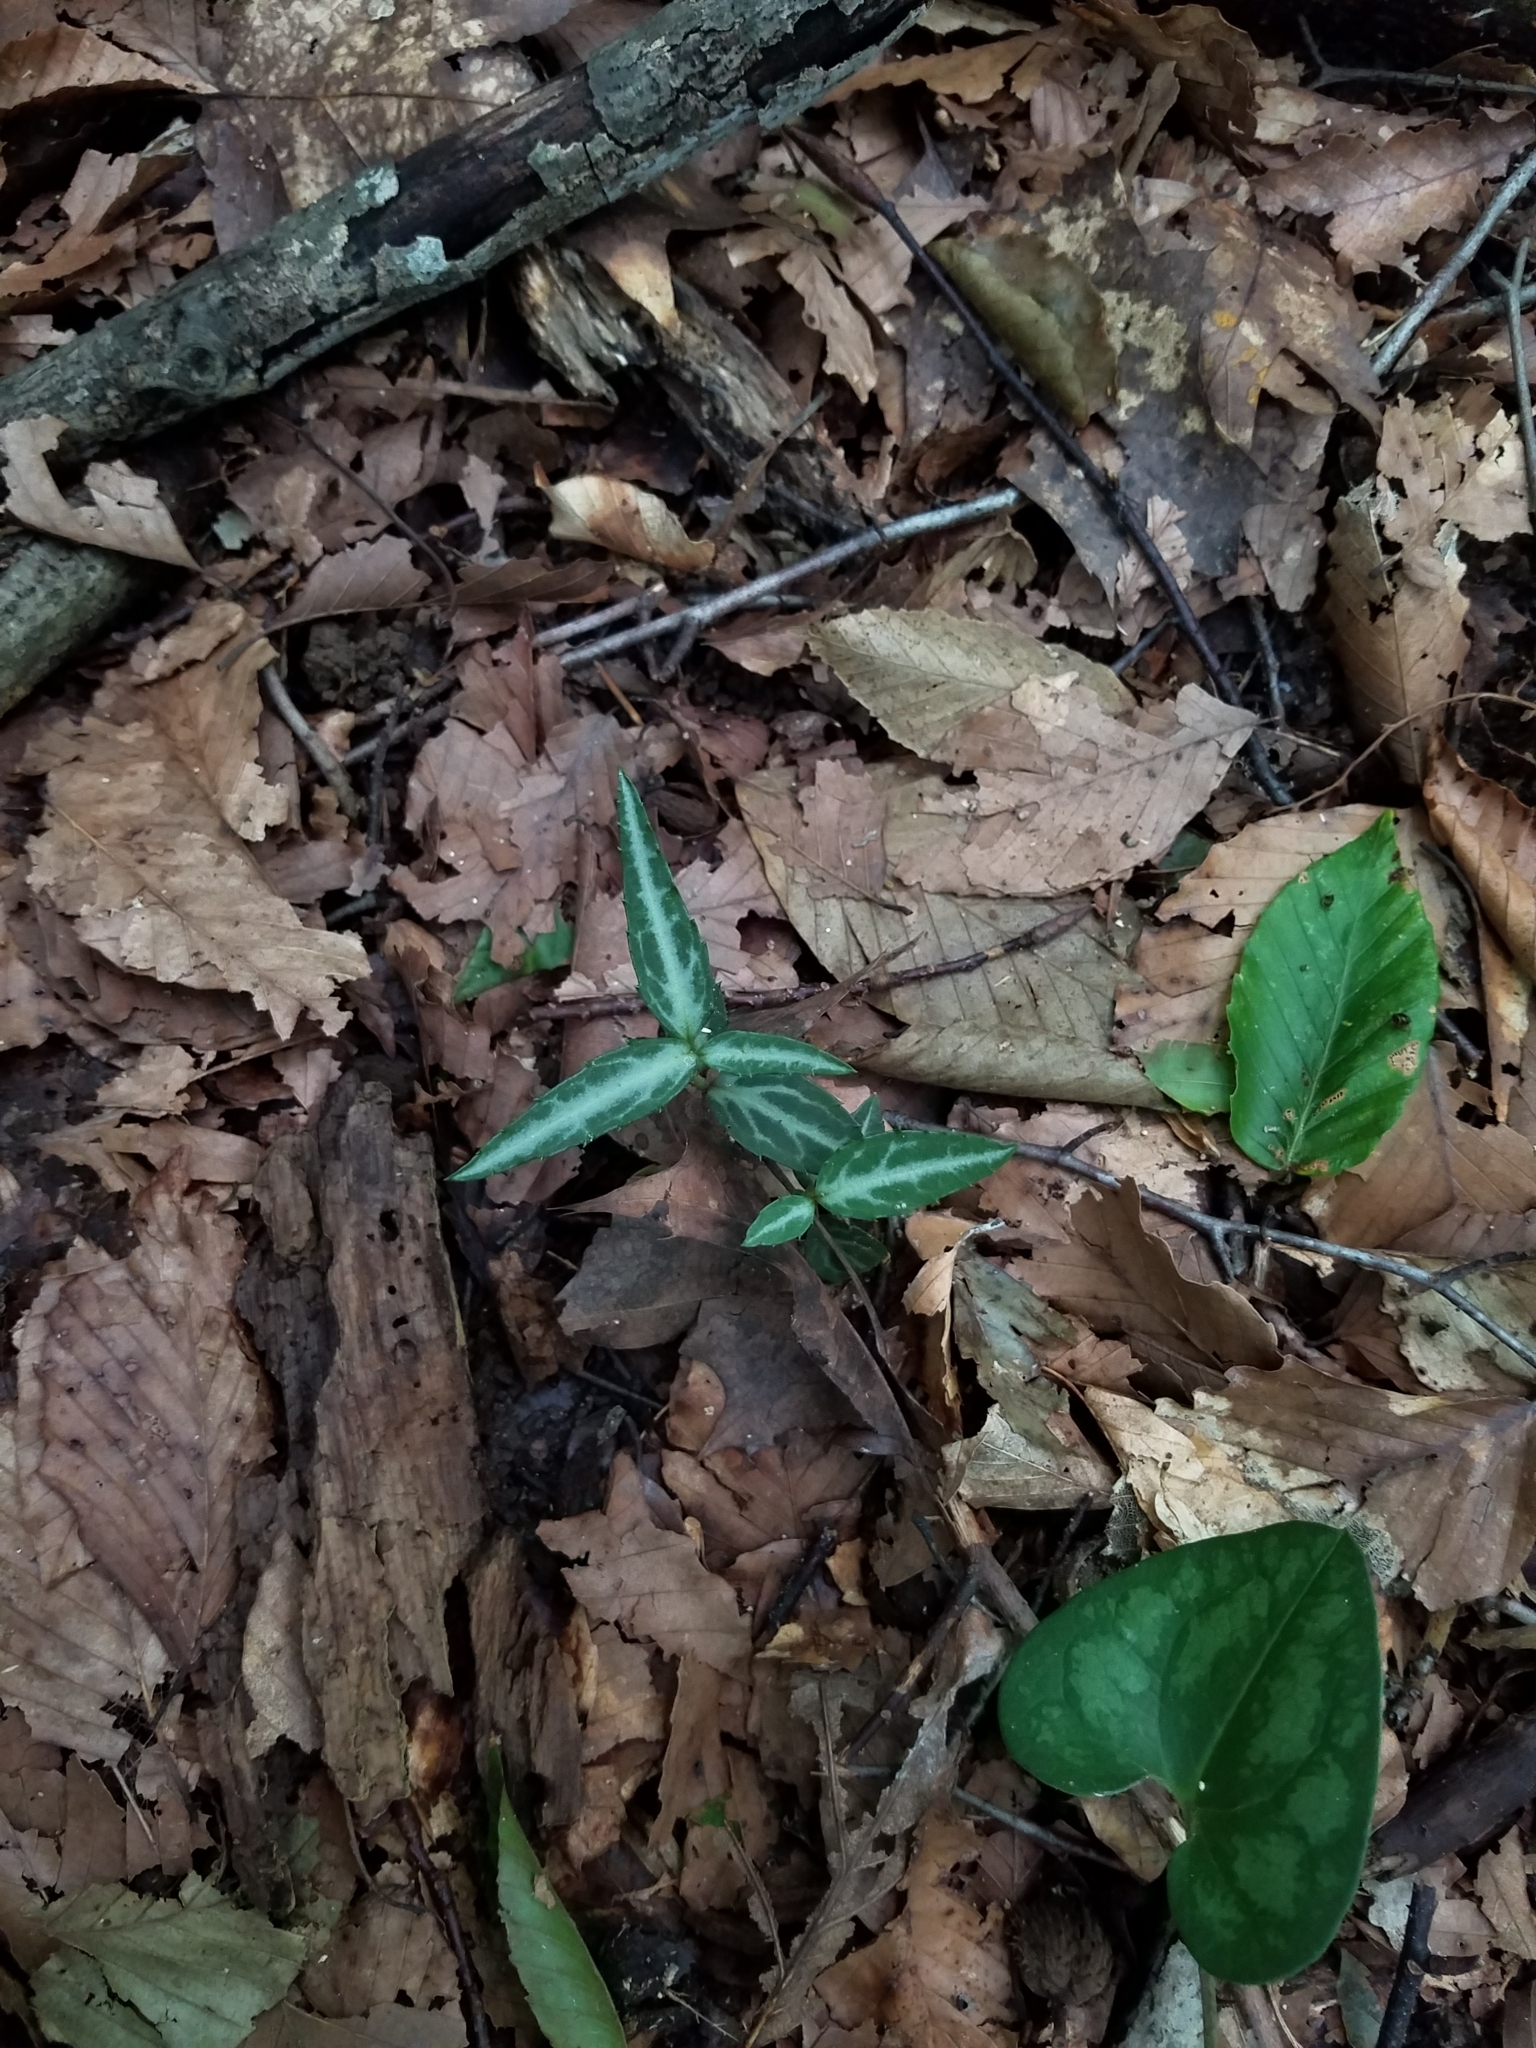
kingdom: Plantae
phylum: Tracheophyta
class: Magnoliopsida
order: Piperales
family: Aristolochiaceae
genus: Hexastylis
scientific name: Hexastylis arifolia
